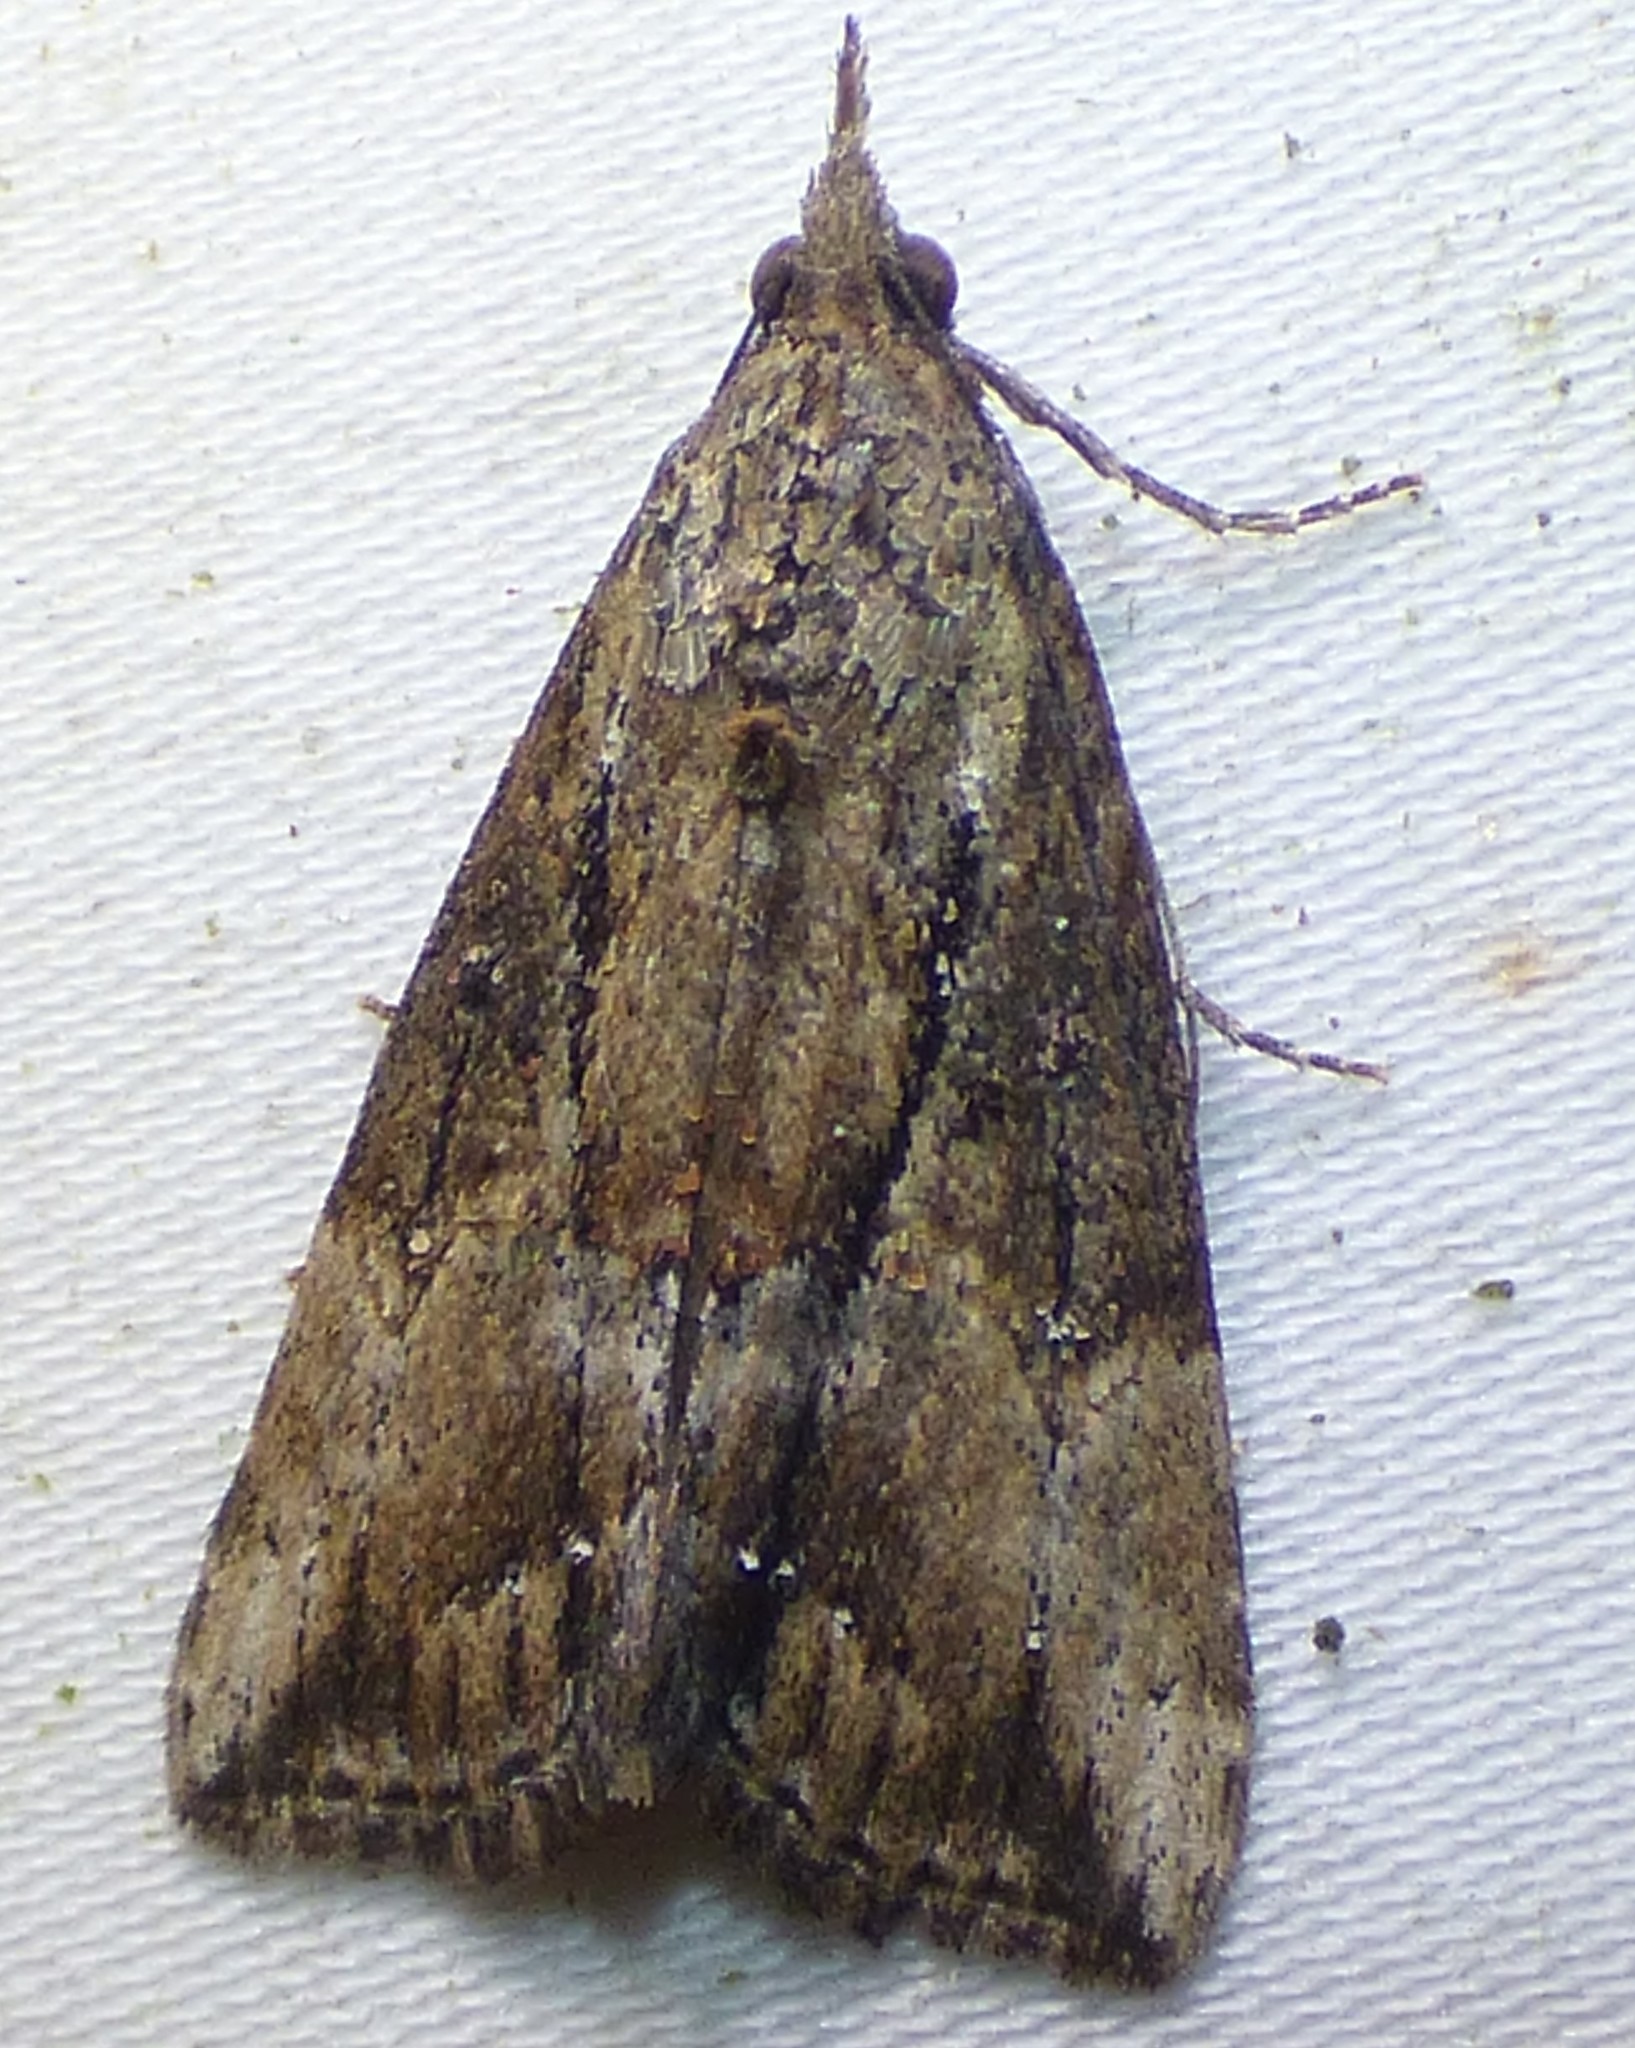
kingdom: Animalia
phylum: Arthropoda
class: Insecta
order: Lepidoptera
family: Erebidae
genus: Hypena
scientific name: Hypena scabra
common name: Green cloverworm
